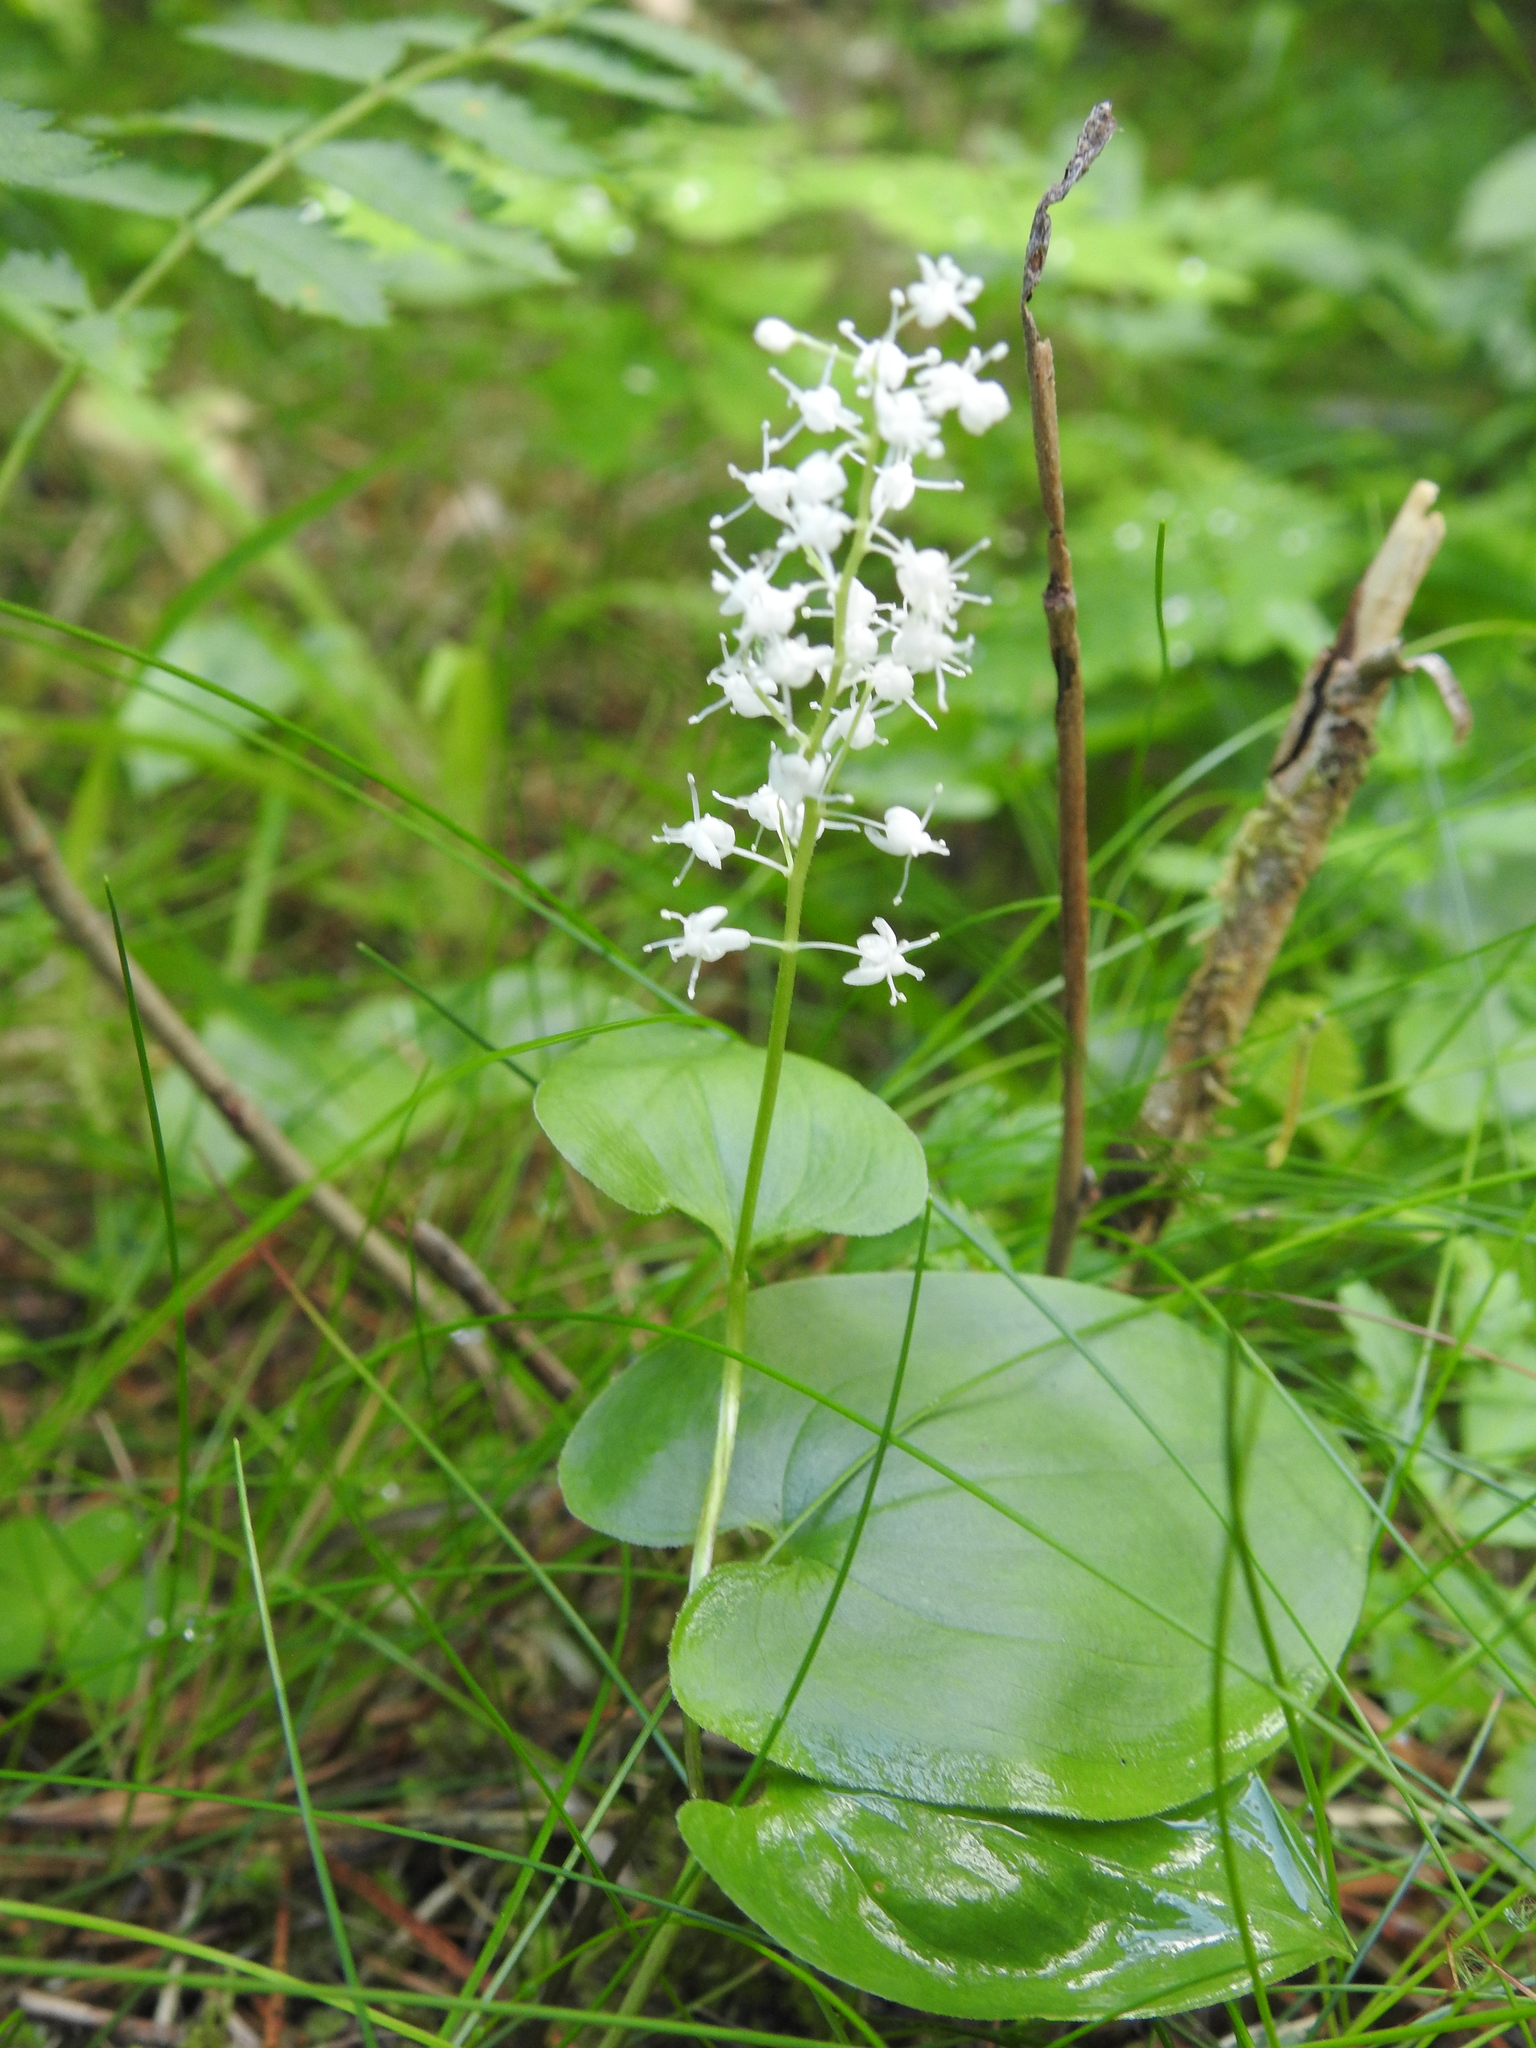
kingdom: Plantae
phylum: Tracheophyta
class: Liliopsida
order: Asparagales
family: Asparagaceae
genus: Maianthemum
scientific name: Maianthemum bifolium
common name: May lily
